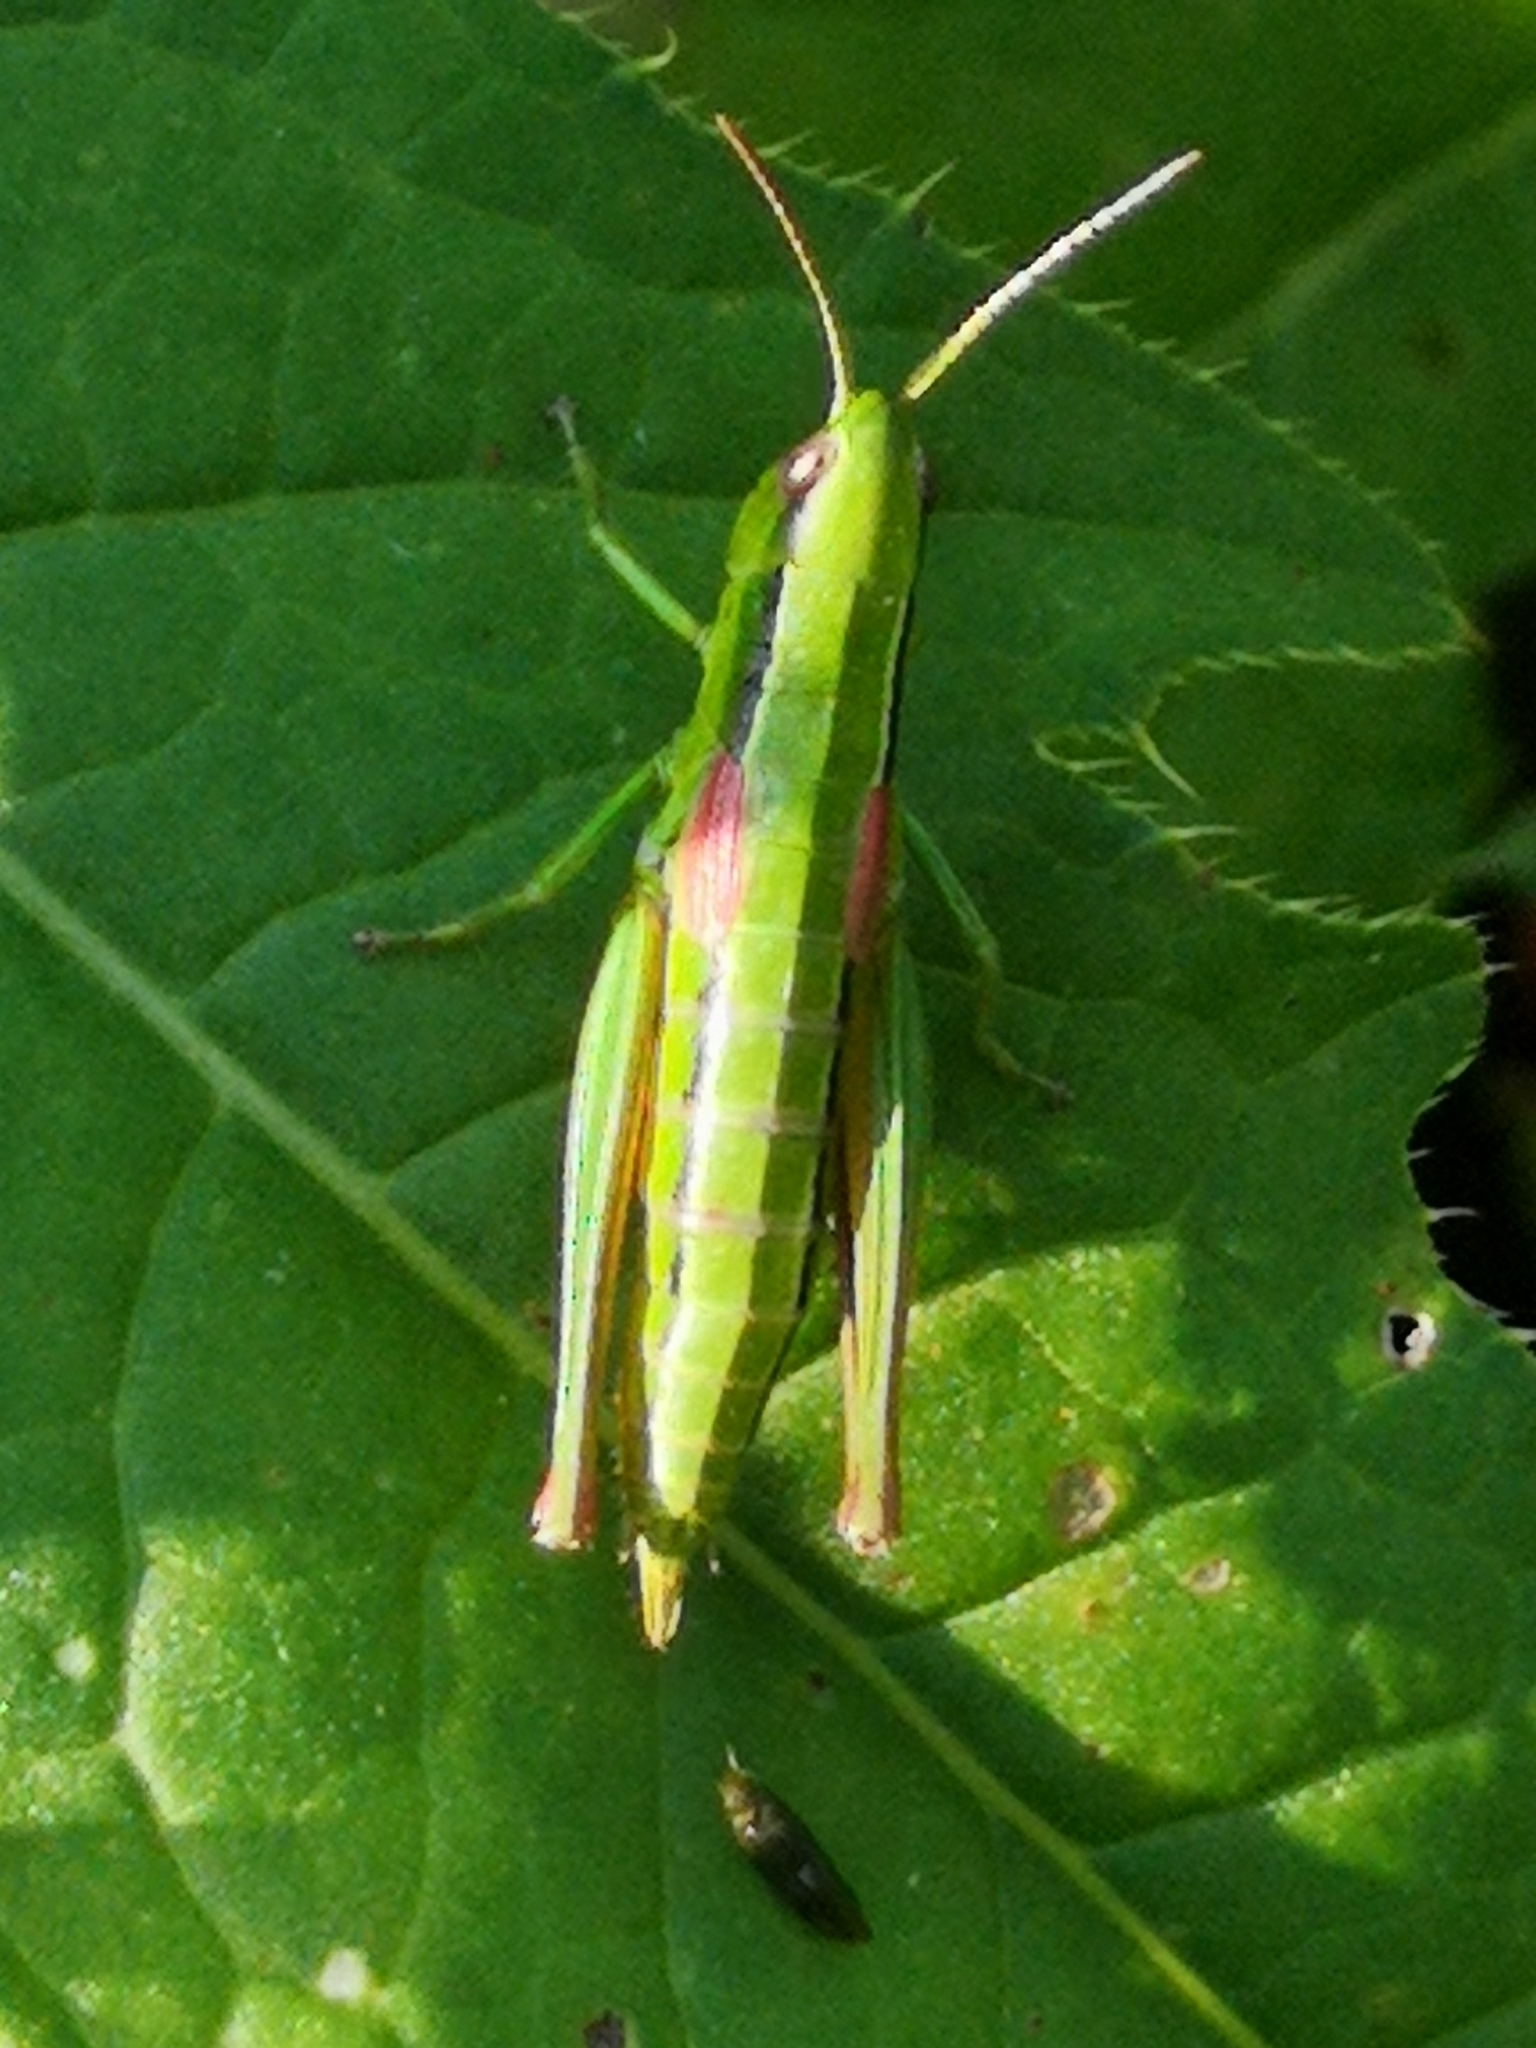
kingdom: Animalia
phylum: Arthropoda
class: Insecta
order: Orthoptera
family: Acrididae
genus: Euthystira
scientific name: Euthystira brachyptera
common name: Small gold grasshopper
